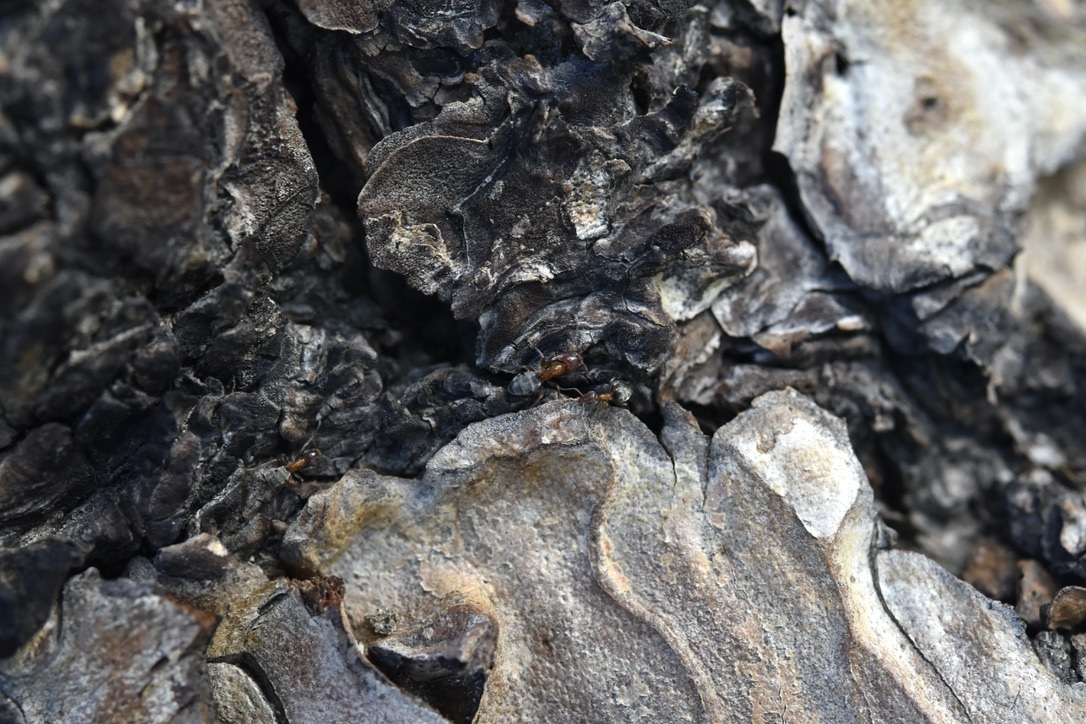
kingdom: Animalia
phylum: Arthropoda
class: Insecta
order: Hymenoptera
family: Formicidae
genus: Liometopum
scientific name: Liometopum occidentale
